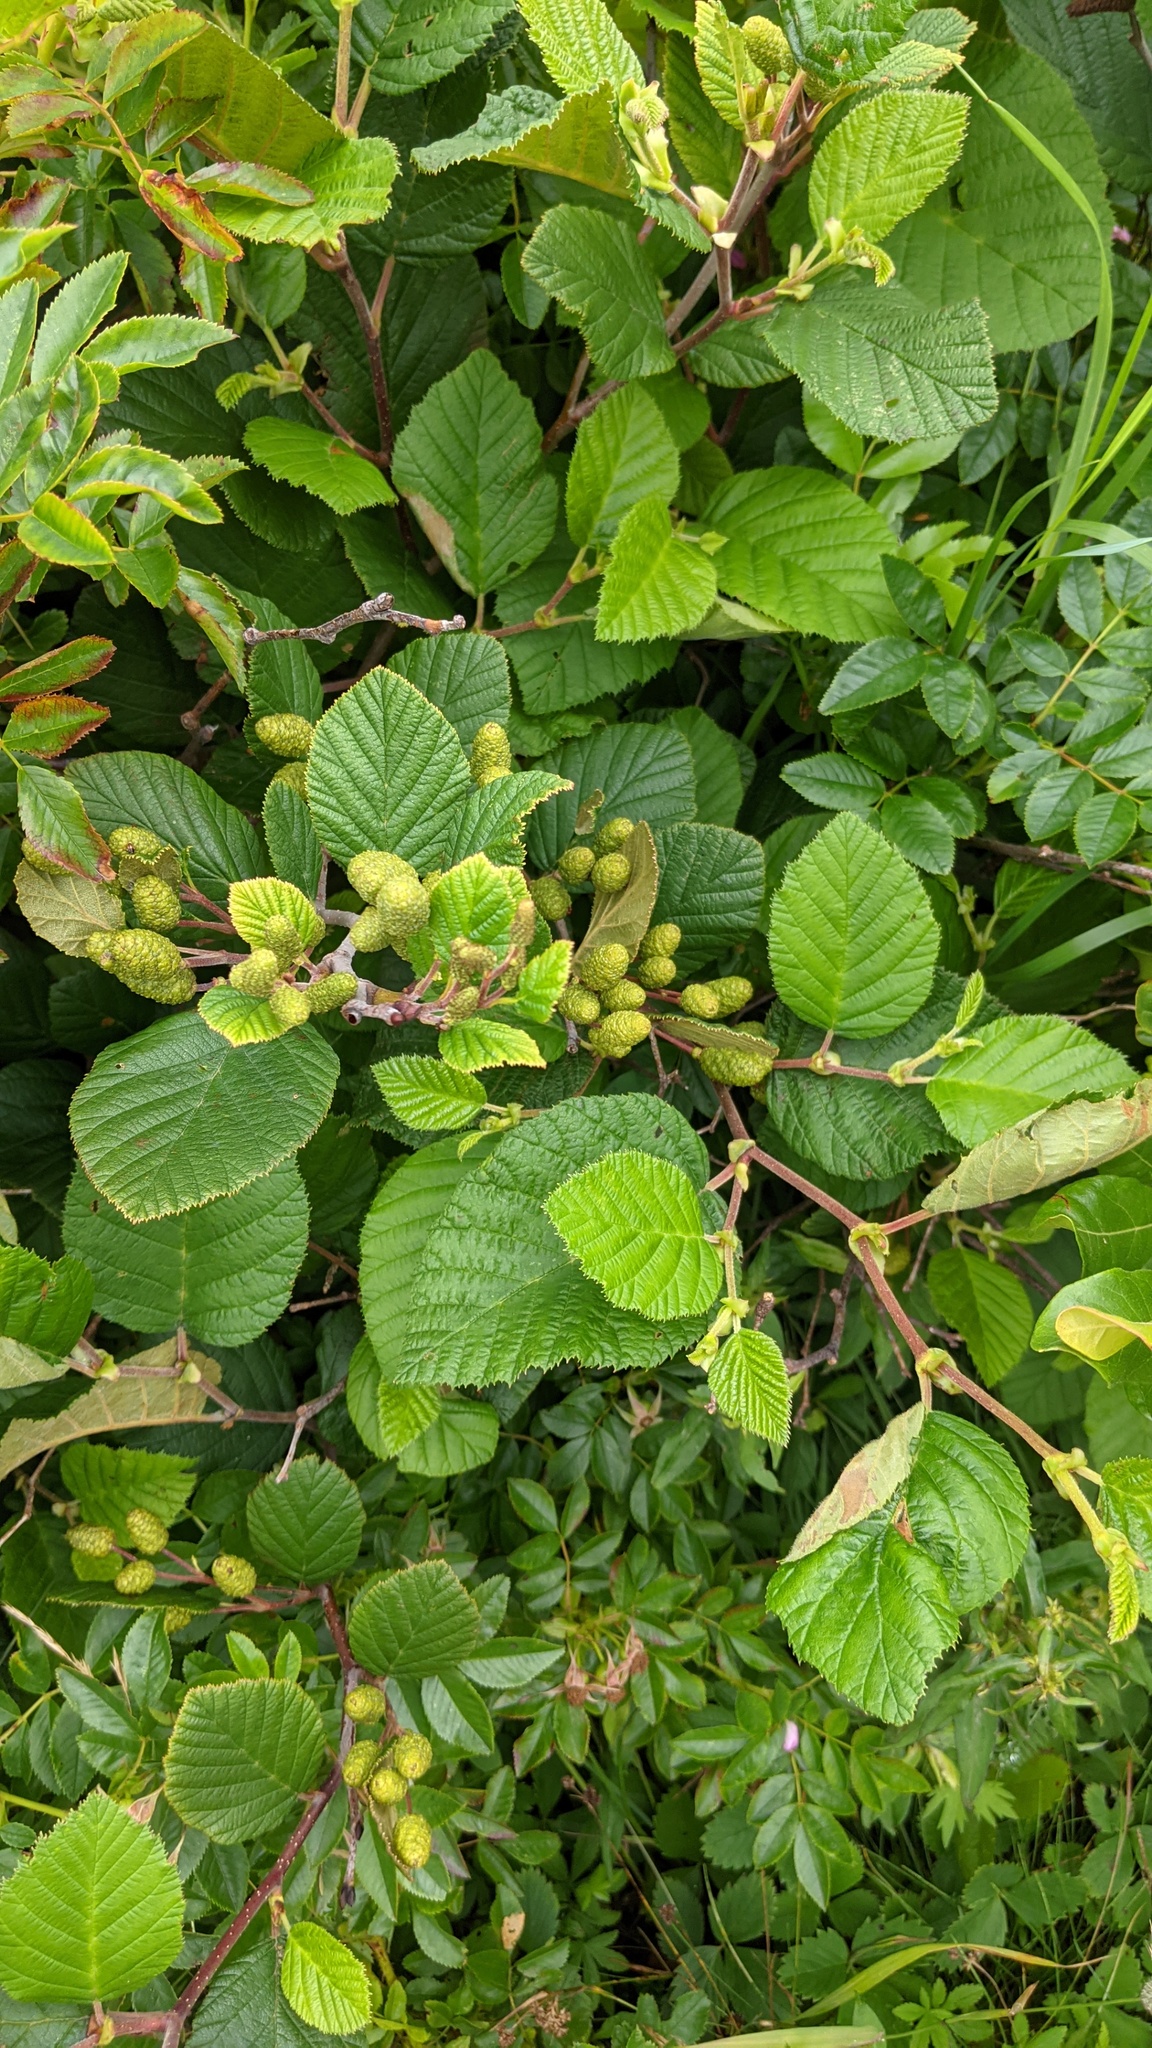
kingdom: Plantae
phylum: Tracheophyta
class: Magnoliopsida
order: Fagales
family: Betulaceae
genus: Alnus
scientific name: Alnus alnobetula
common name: Green alder
